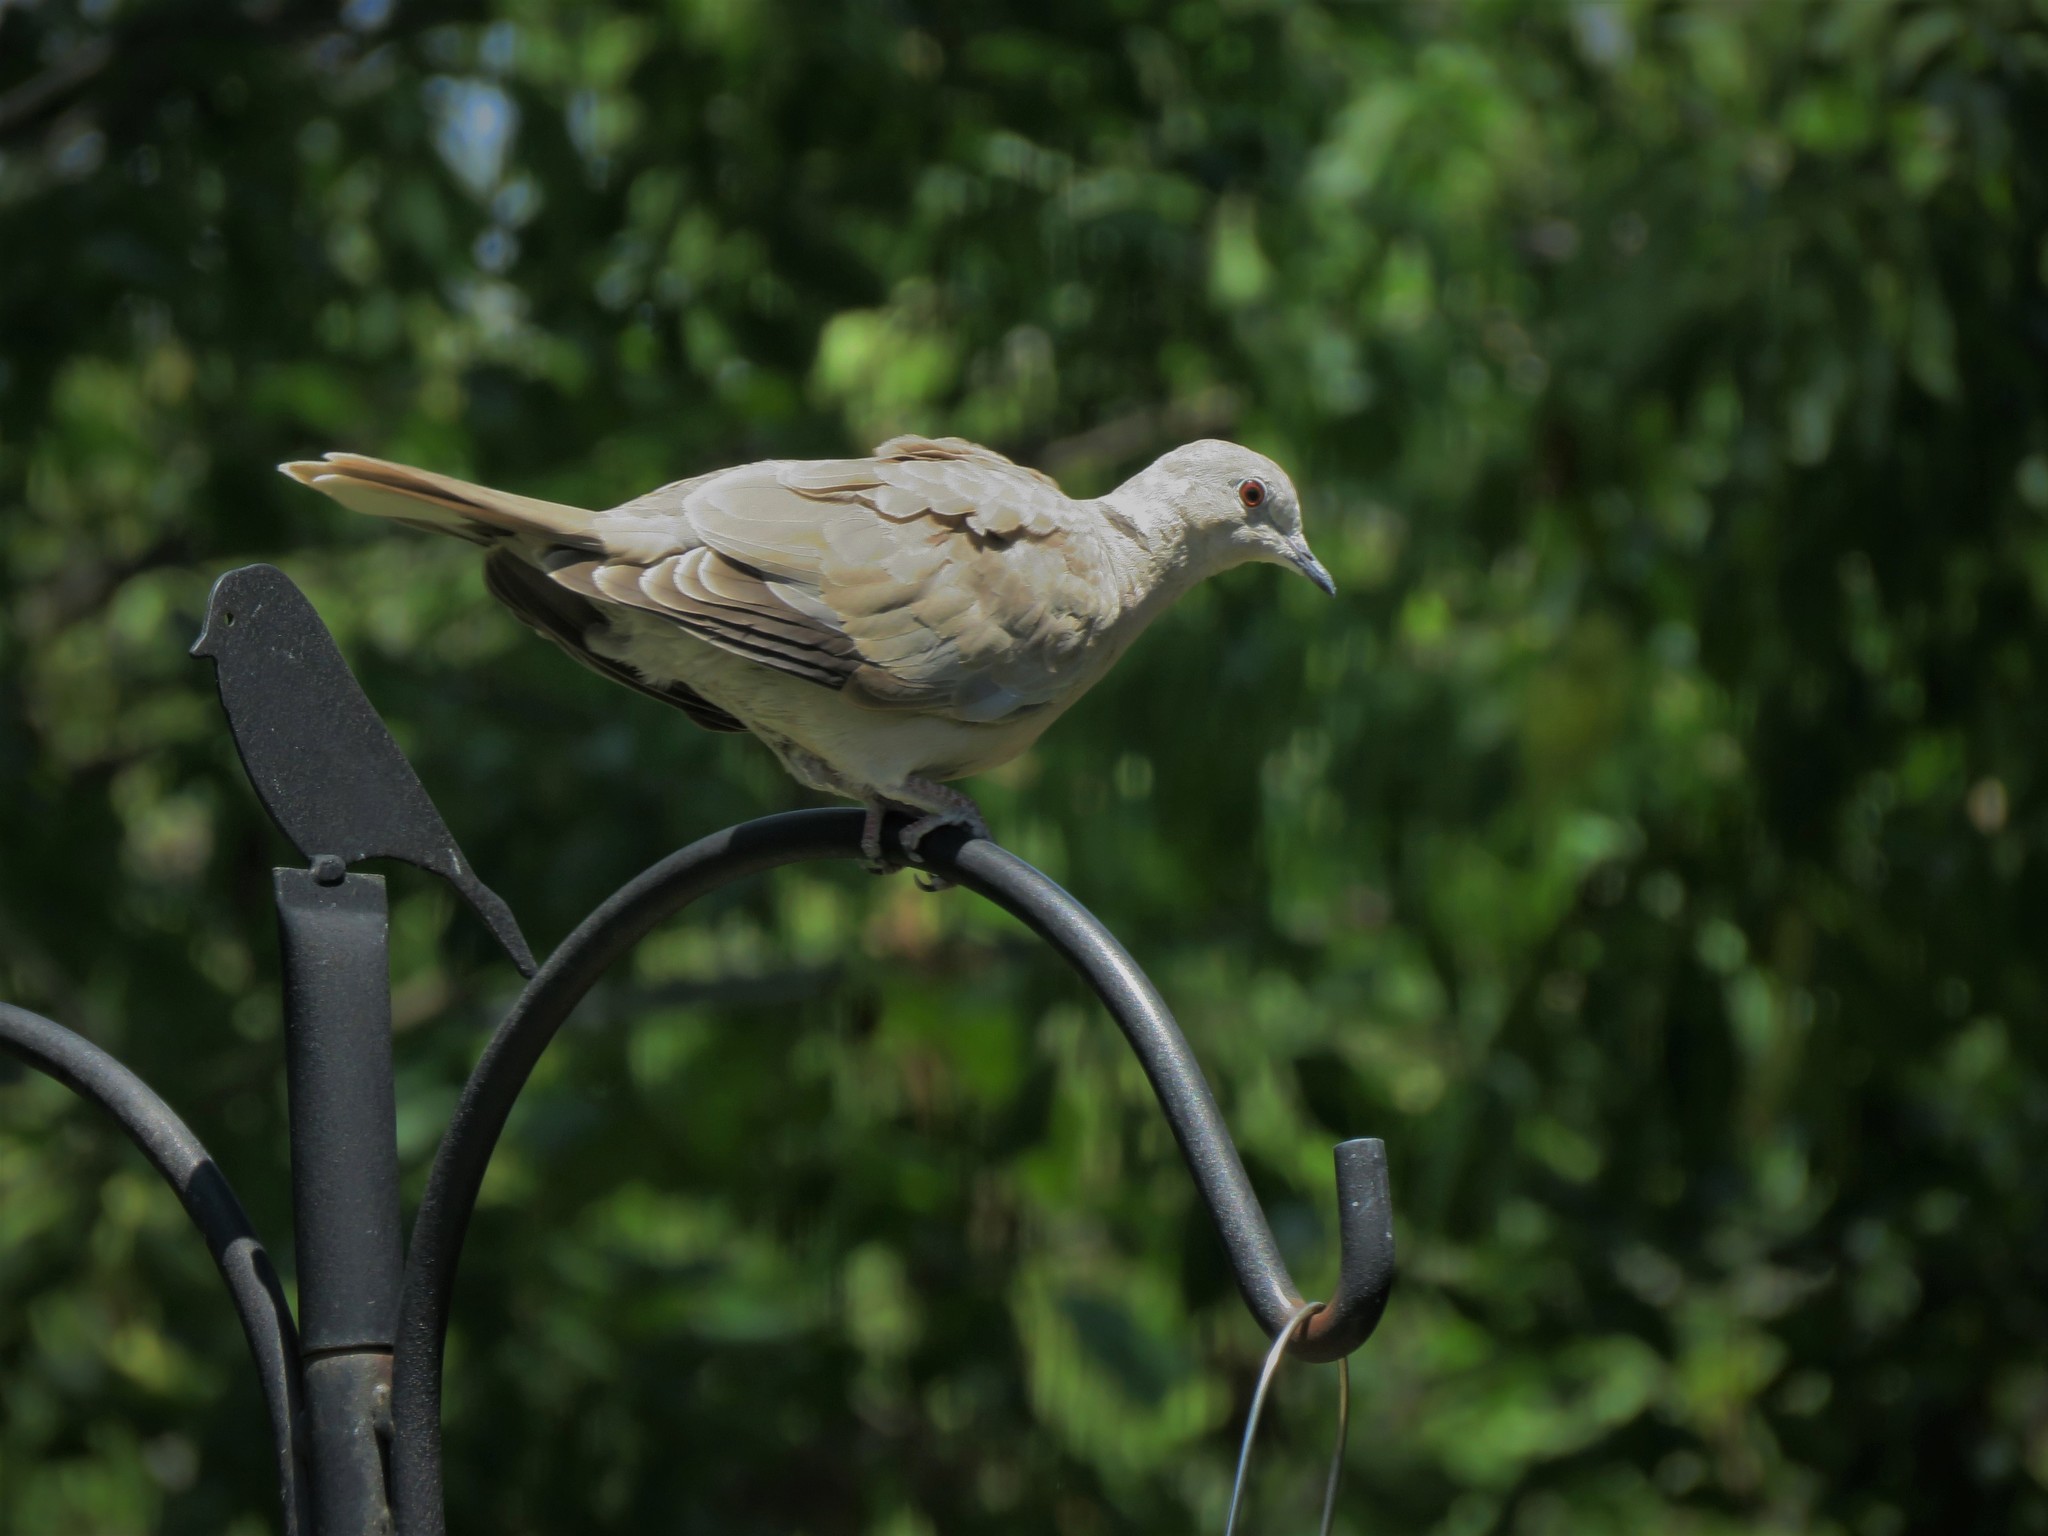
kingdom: Animalia
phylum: Chordata
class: Aves
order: Columbiformes
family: Columbidae
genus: Streptopelia
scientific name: Streptopelia decaocto
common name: Eurasian collared dove
